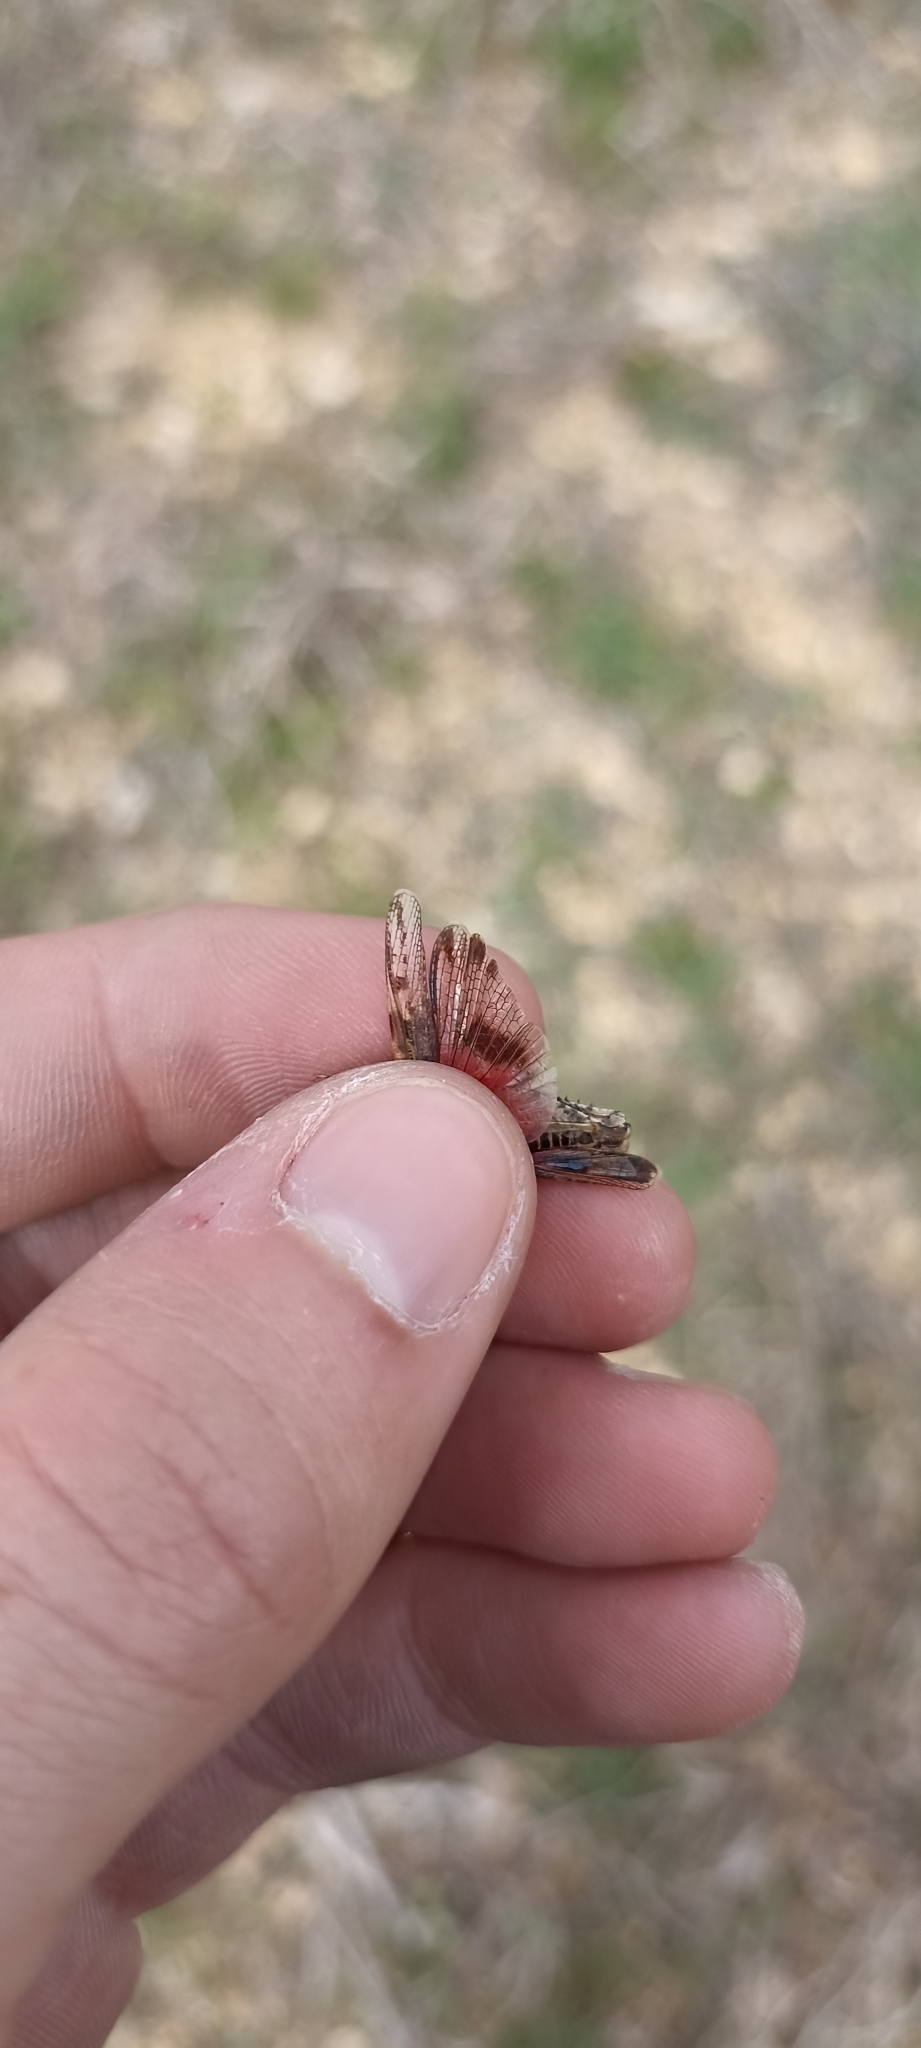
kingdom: Animalia
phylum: Arthropoda
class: Insecta
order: Orthoptera
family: Acrididae
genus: Acrotylus
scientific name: Acrotylus insubricus
